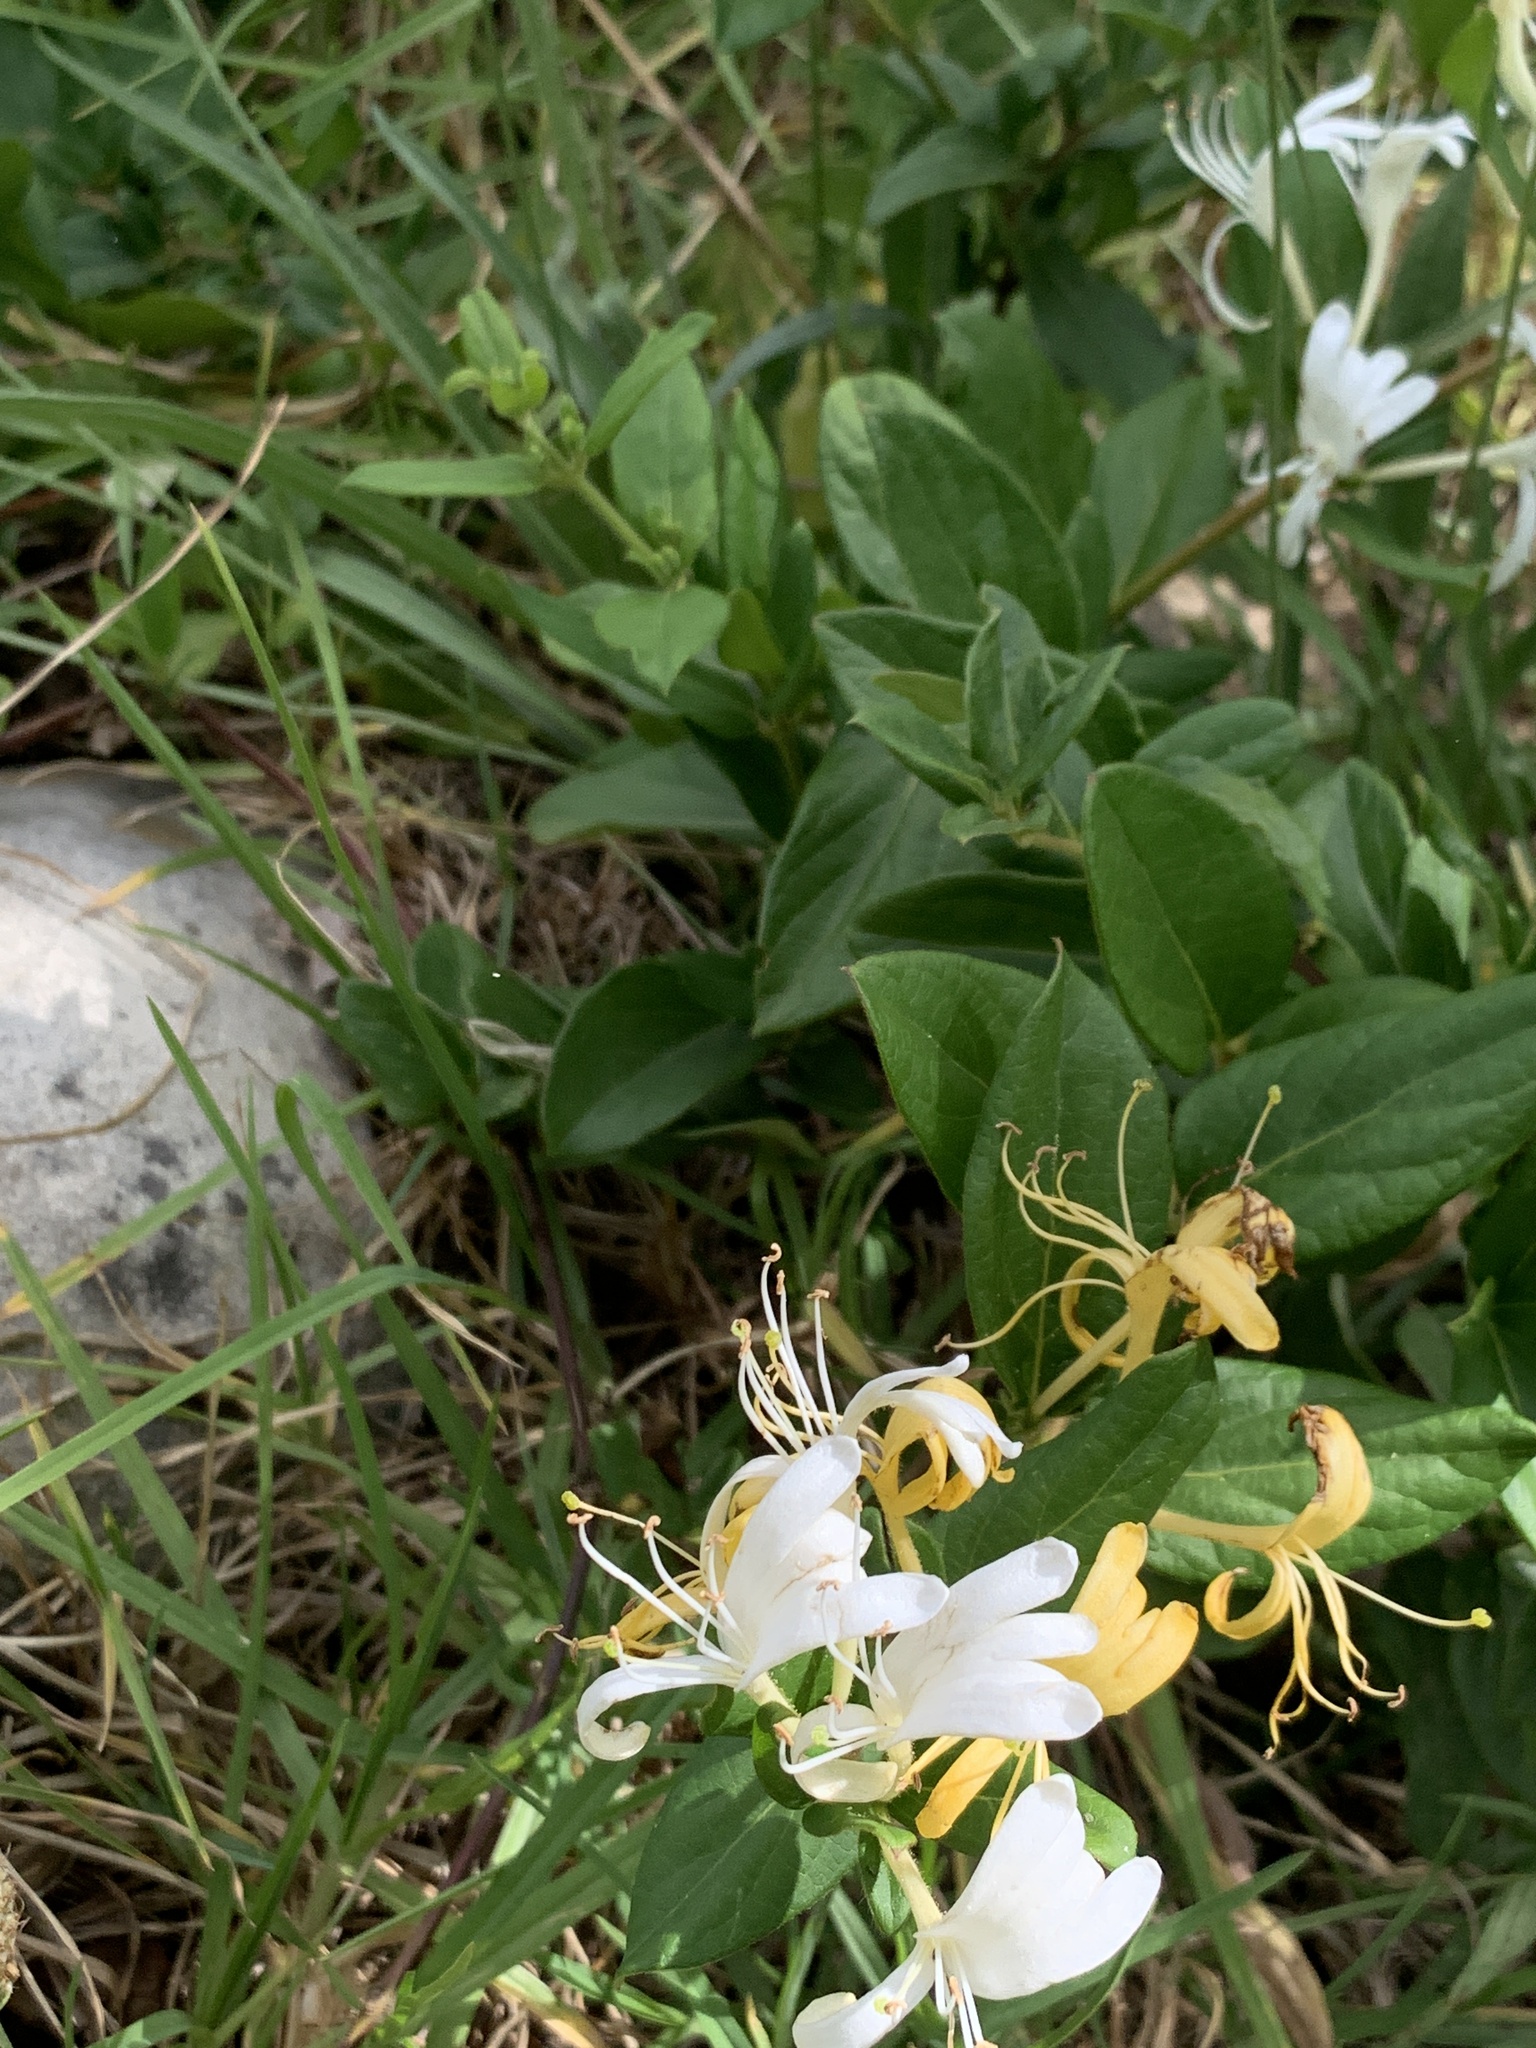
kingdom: Plantae
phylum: Tracheophyta
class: Magnoliopsida
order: Dipsacales
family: Caprifoliaceae
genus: Lonicera
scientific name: Lonicera japonica
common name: Japanese honeysuckle
